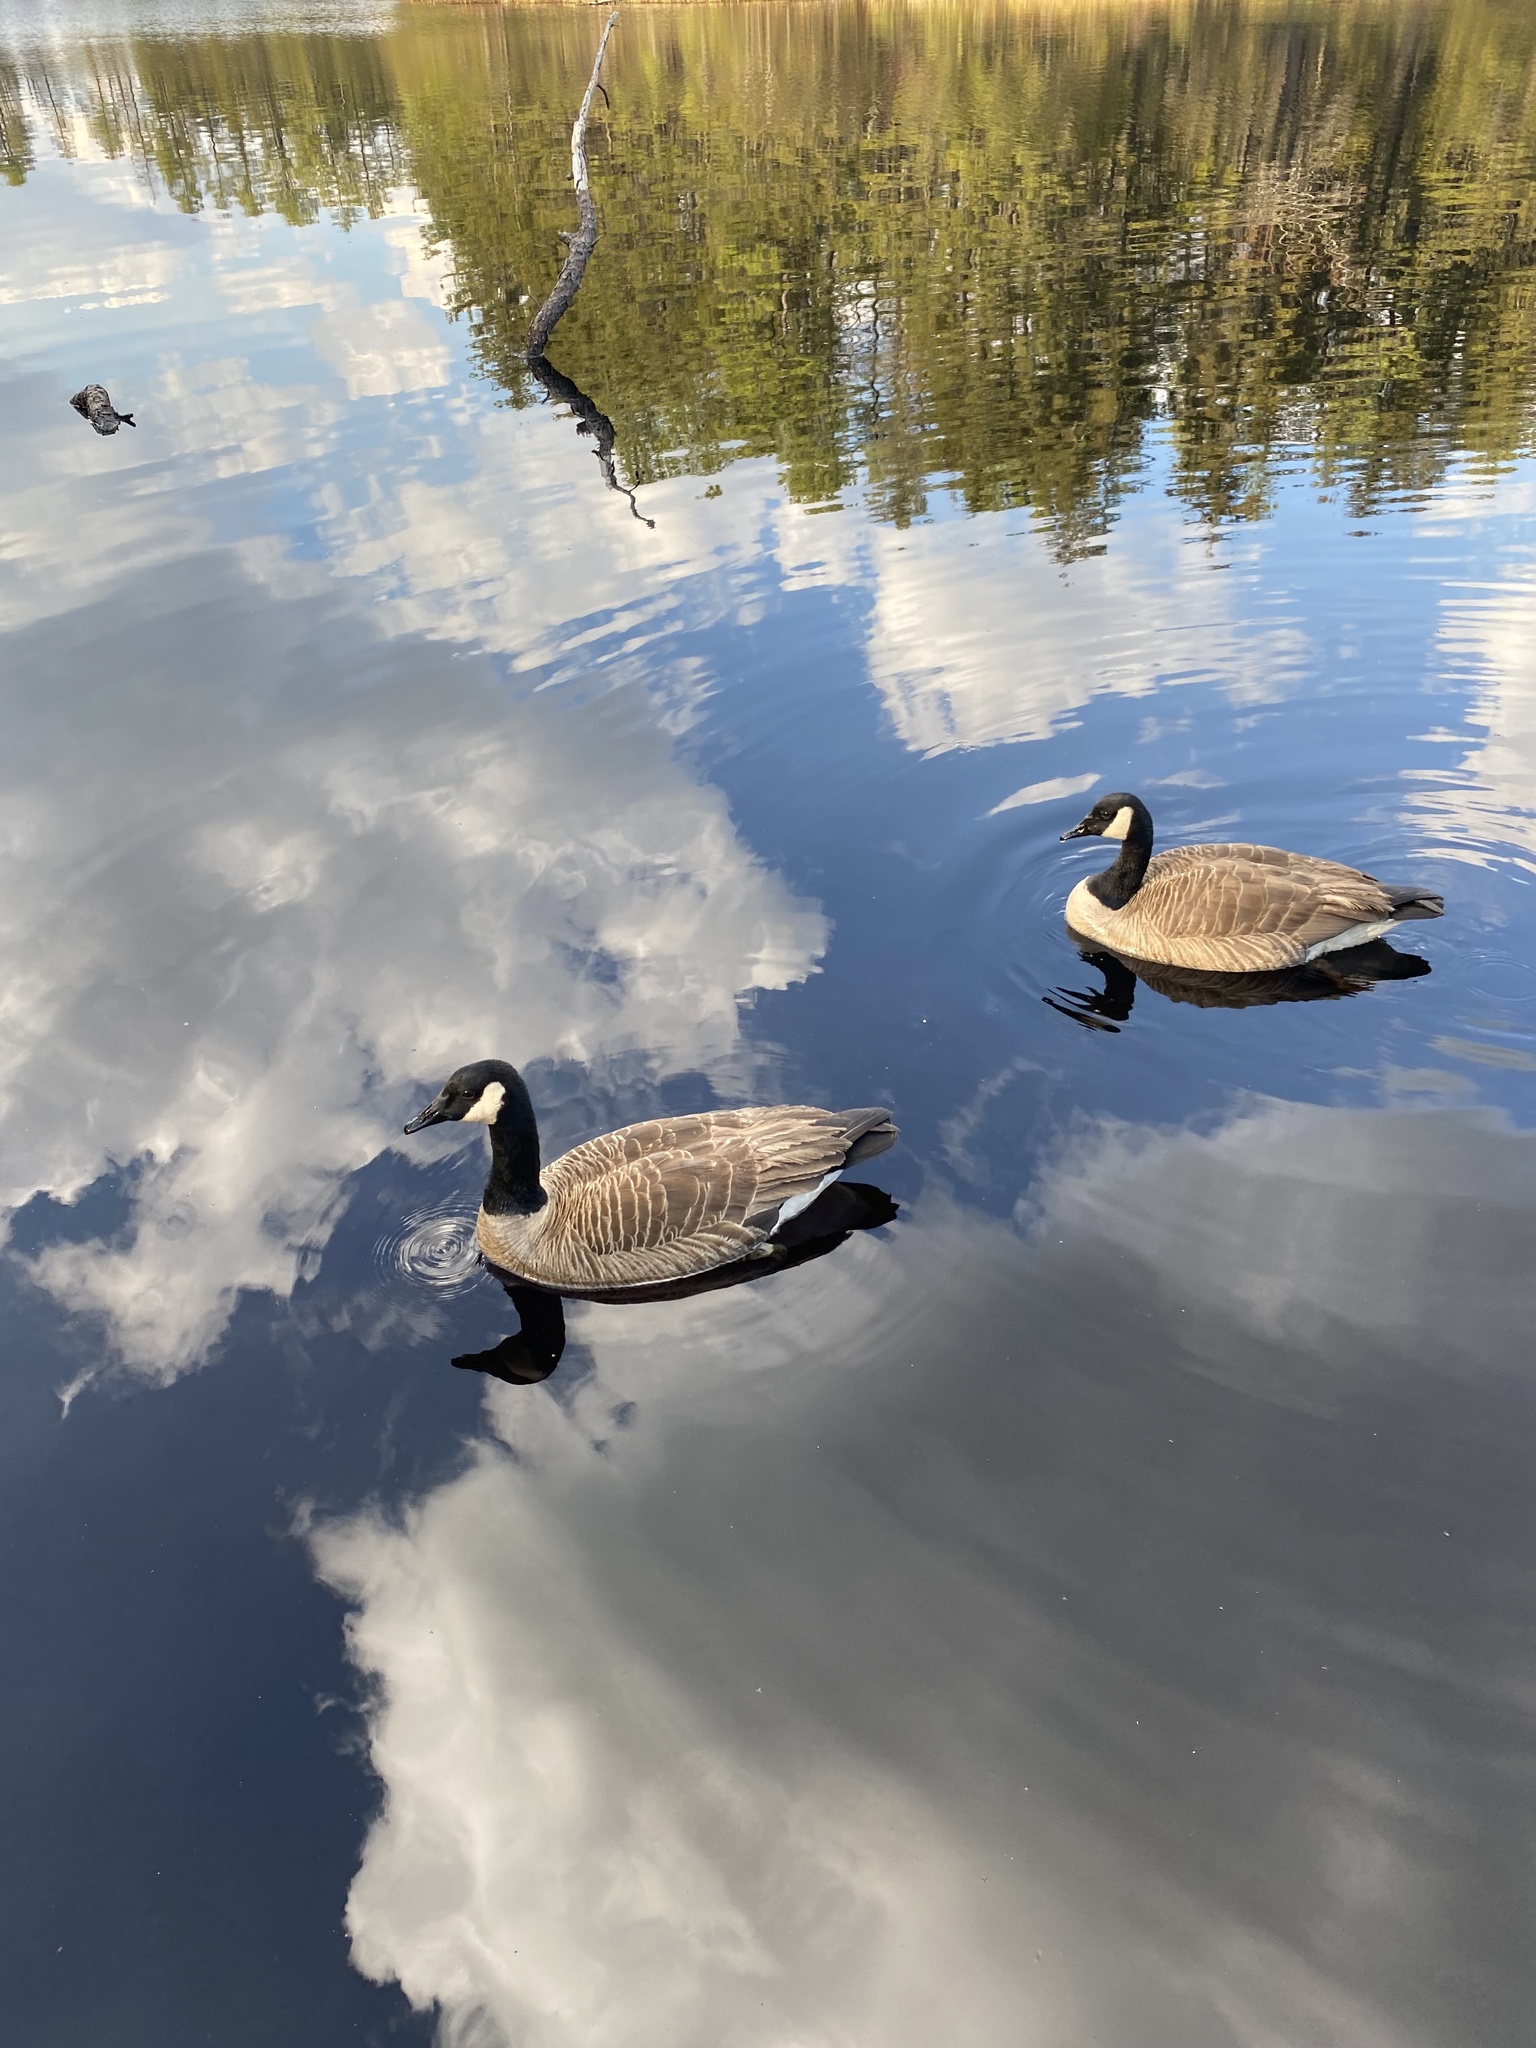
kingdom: Animalia
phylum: Chordata
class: Aves
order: Anseriformes
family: Anatidae
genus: Branta
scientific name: Branta canadensis
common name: Canada goose
